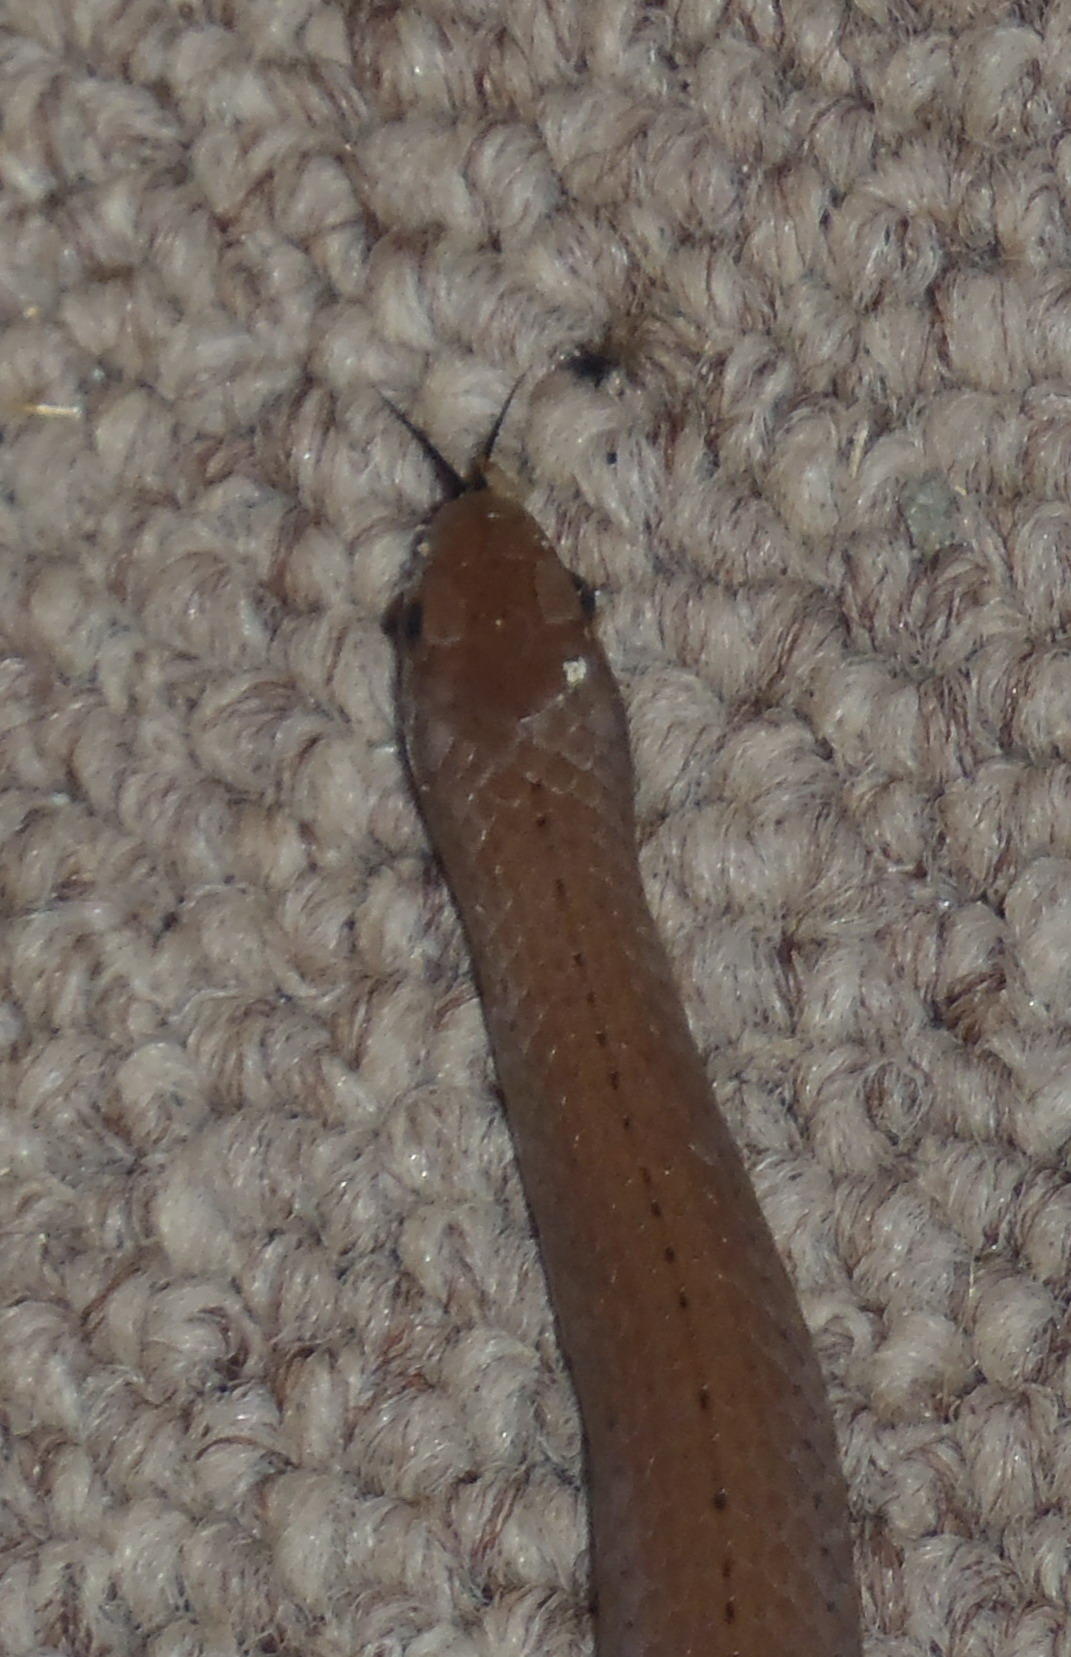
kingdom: Animalia
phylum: Chordata
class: Squamata
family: Pseudoxyrhophiidae
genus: Duberria
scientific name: Duberria lutrix
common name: Common slug eater
